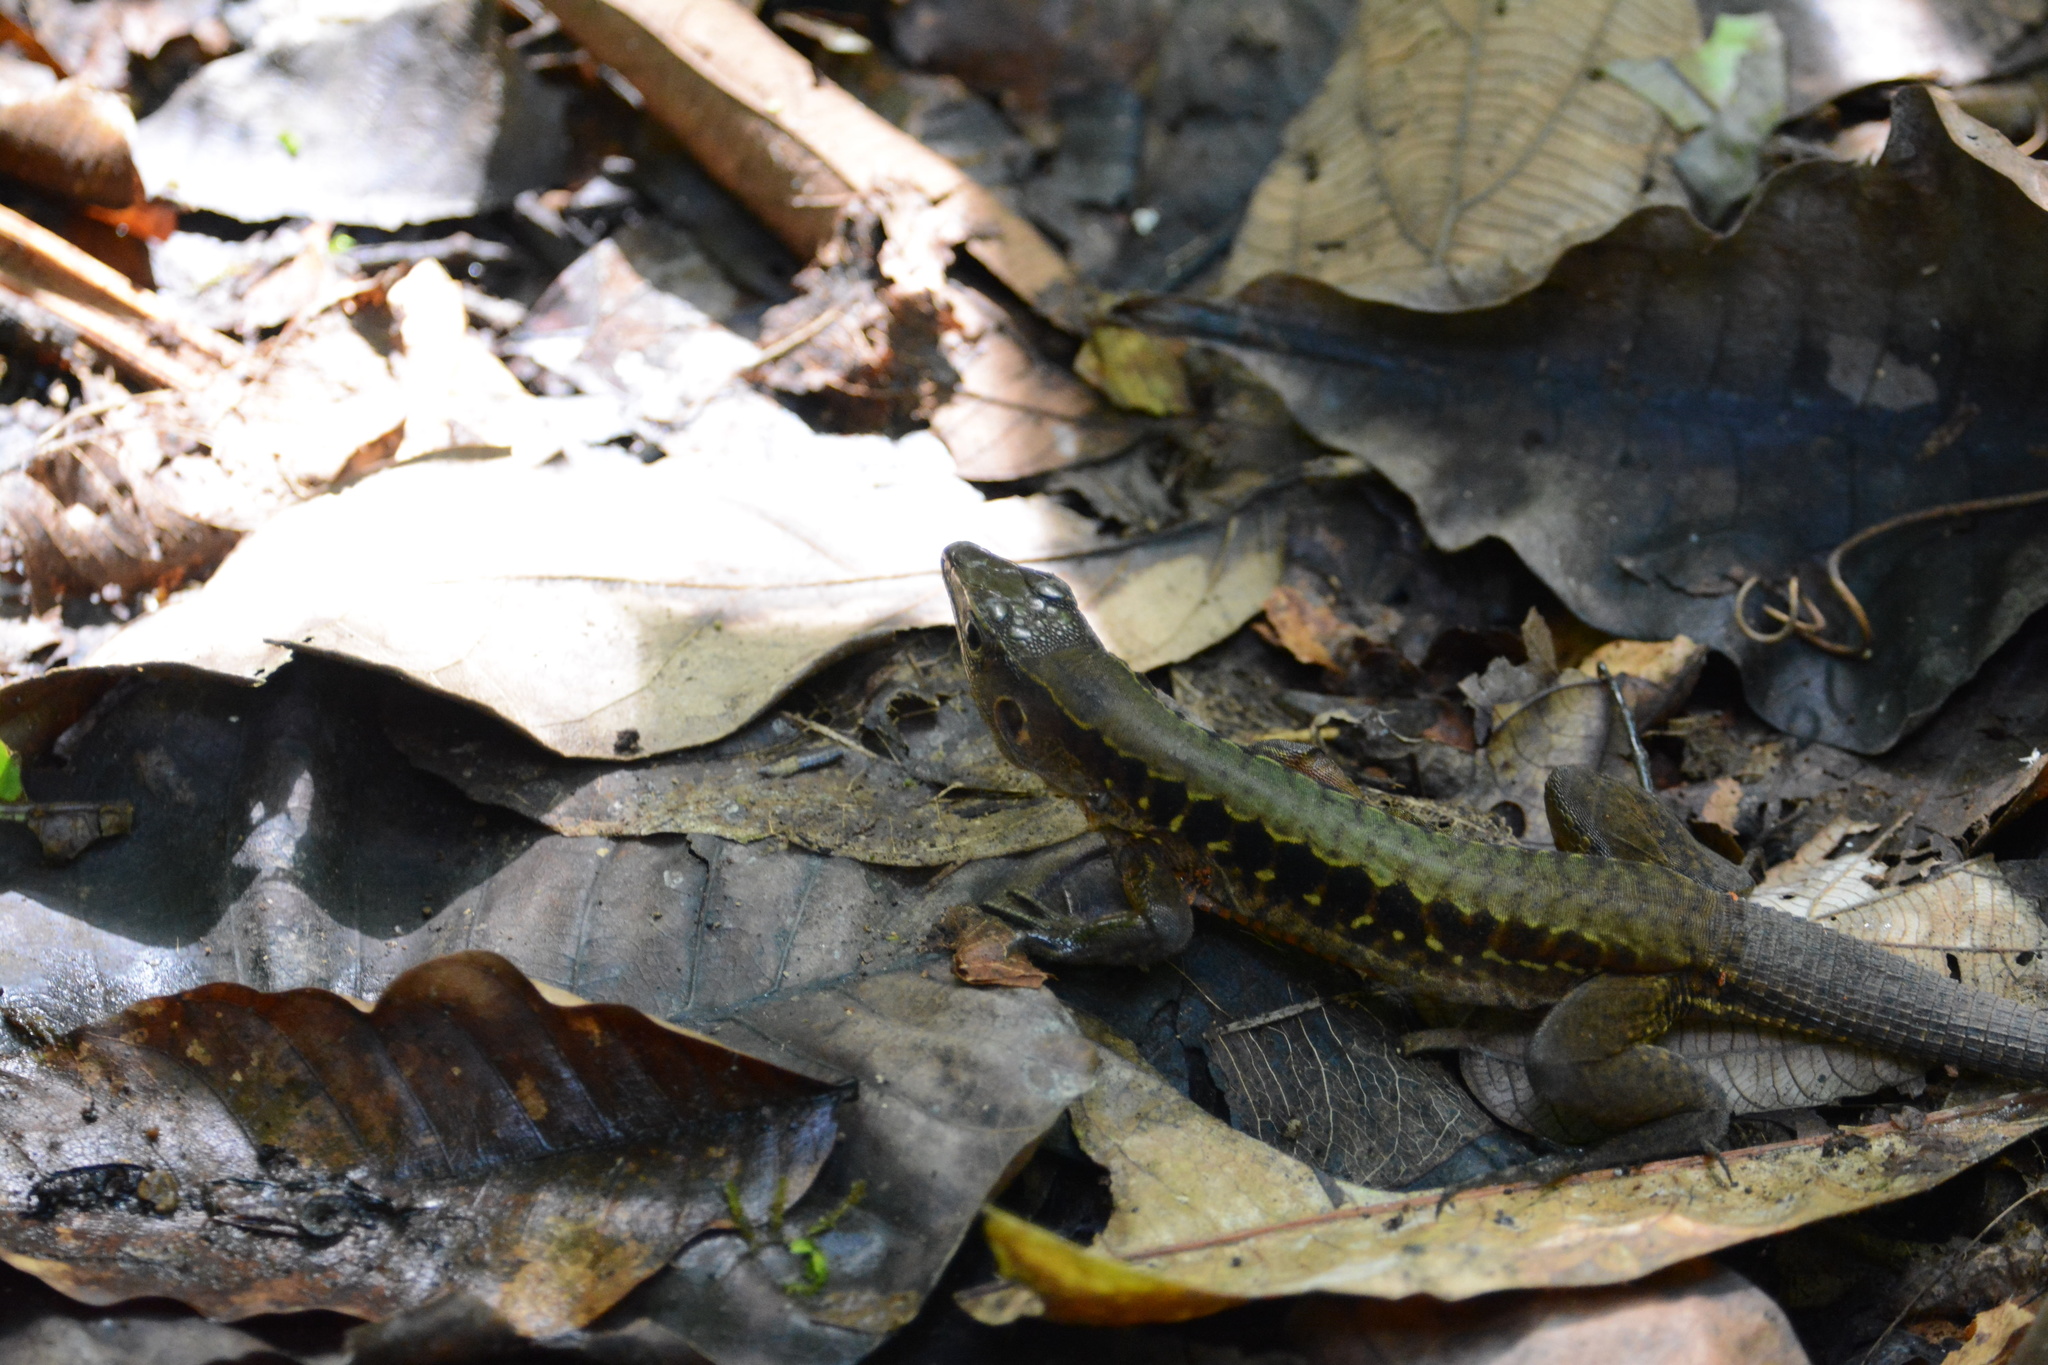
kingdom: Animalia
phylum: Chordata
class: Squamata
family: Teiidae
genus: Holcosus
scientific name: Holcosus leptophrys
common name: Delicate ameiva
